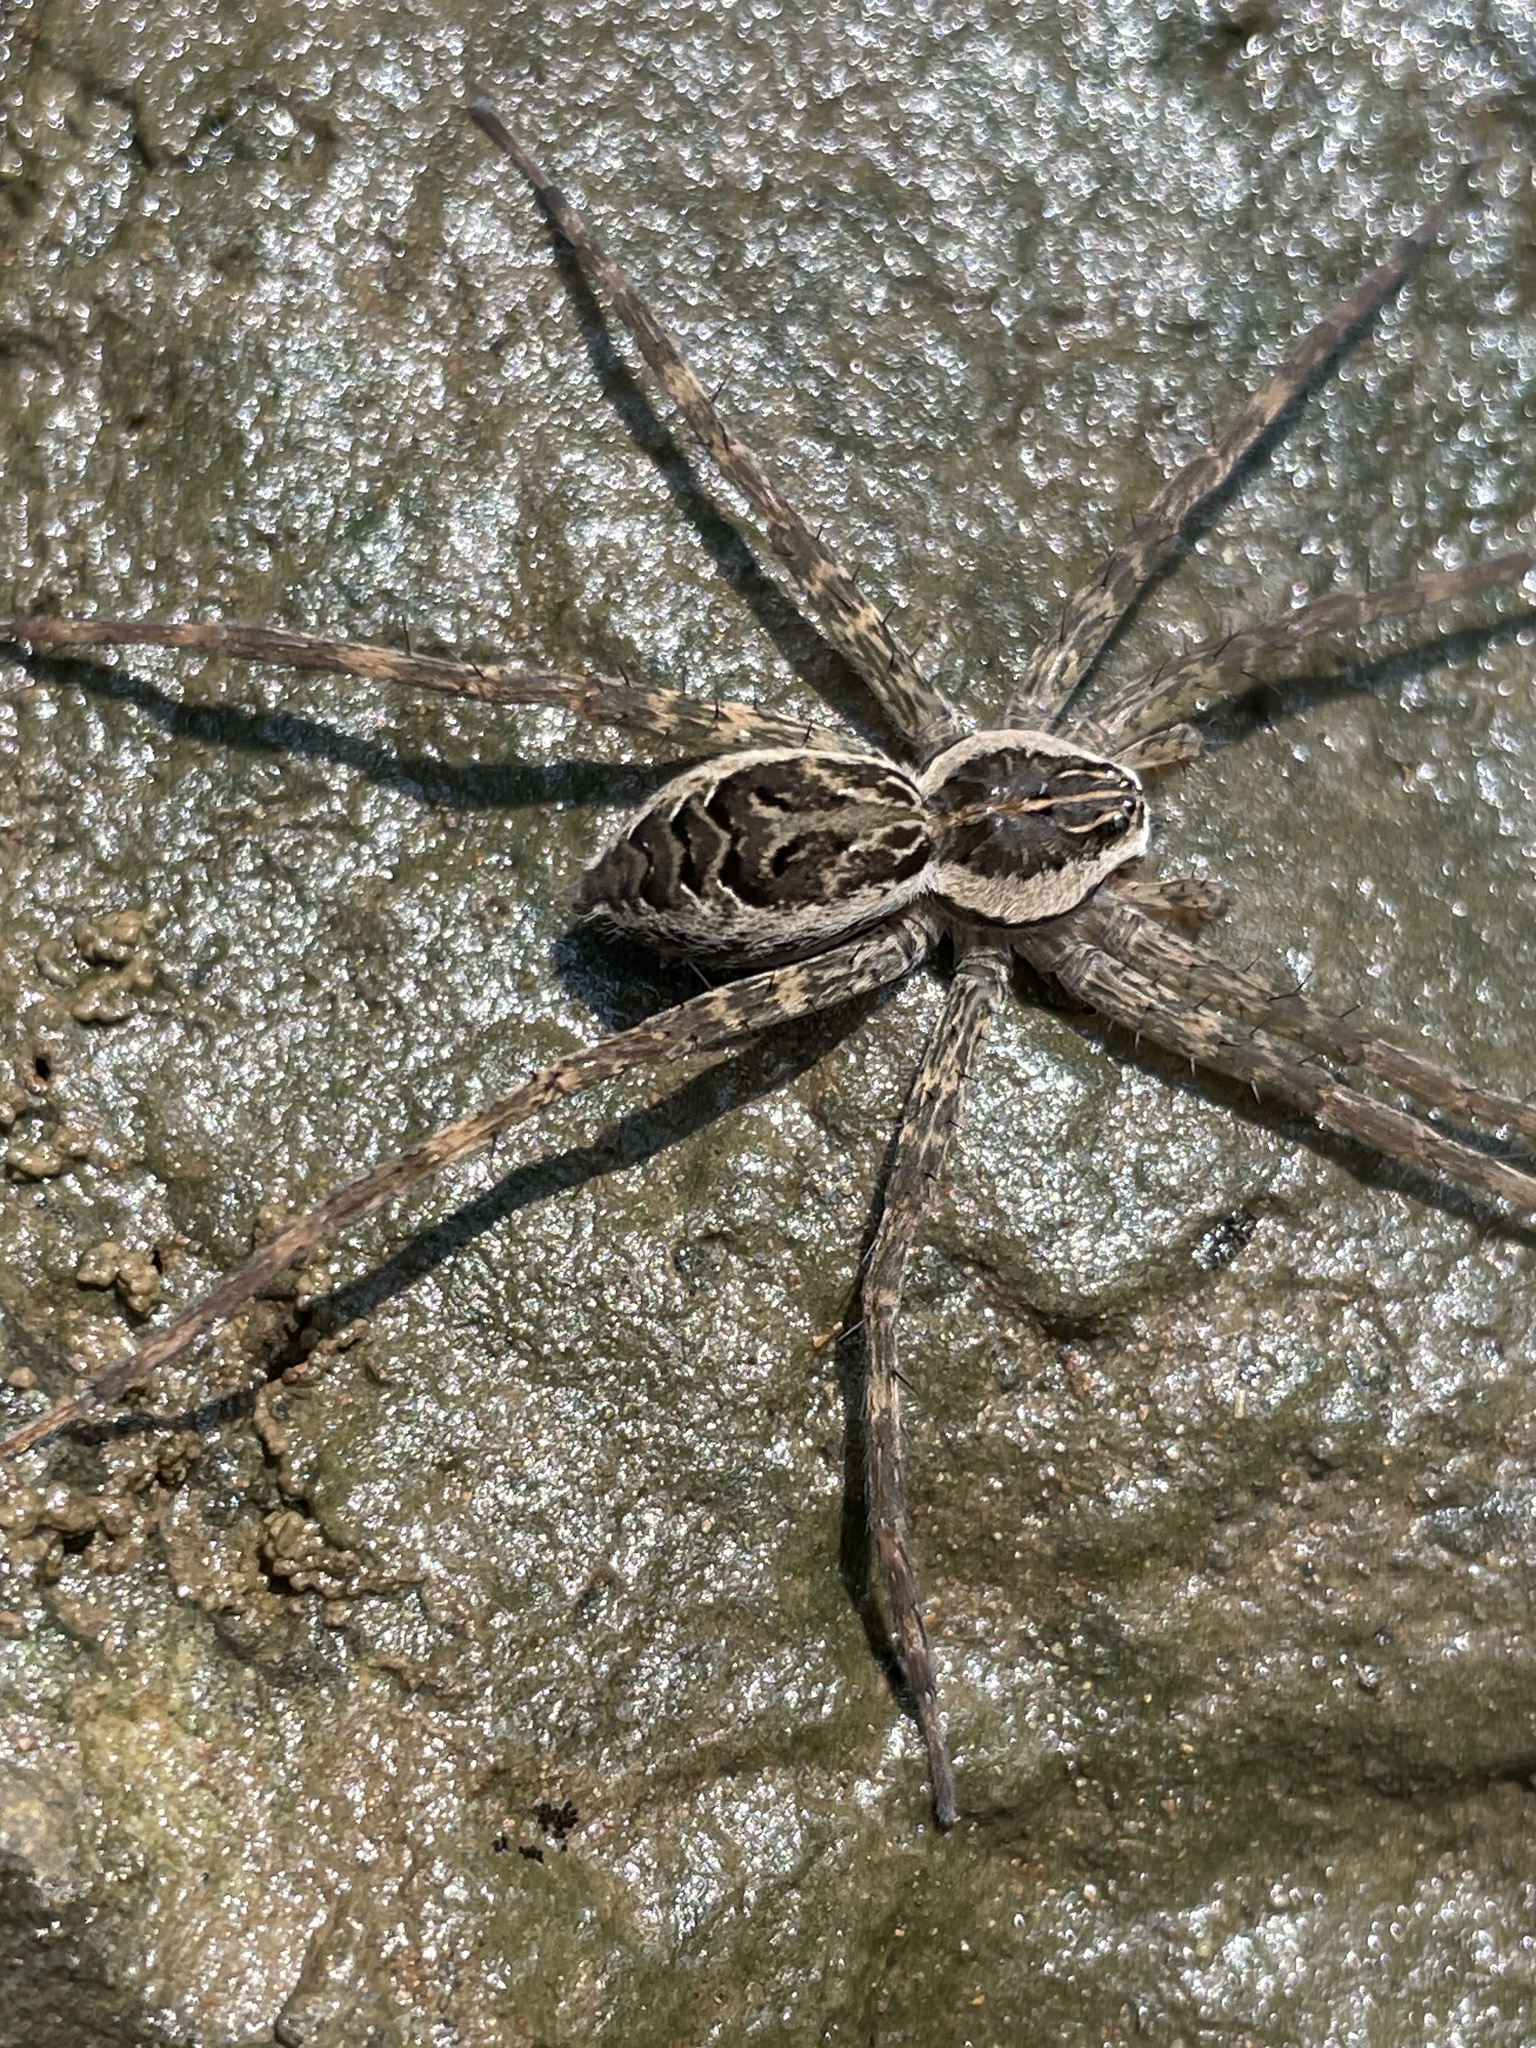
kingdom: Animalia
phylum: Arthropoda
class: Arachnida
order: Araneae
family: Pisauridae
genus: Dolomedes
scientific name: Dolomedes scriptus
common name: Striped fishing spider
